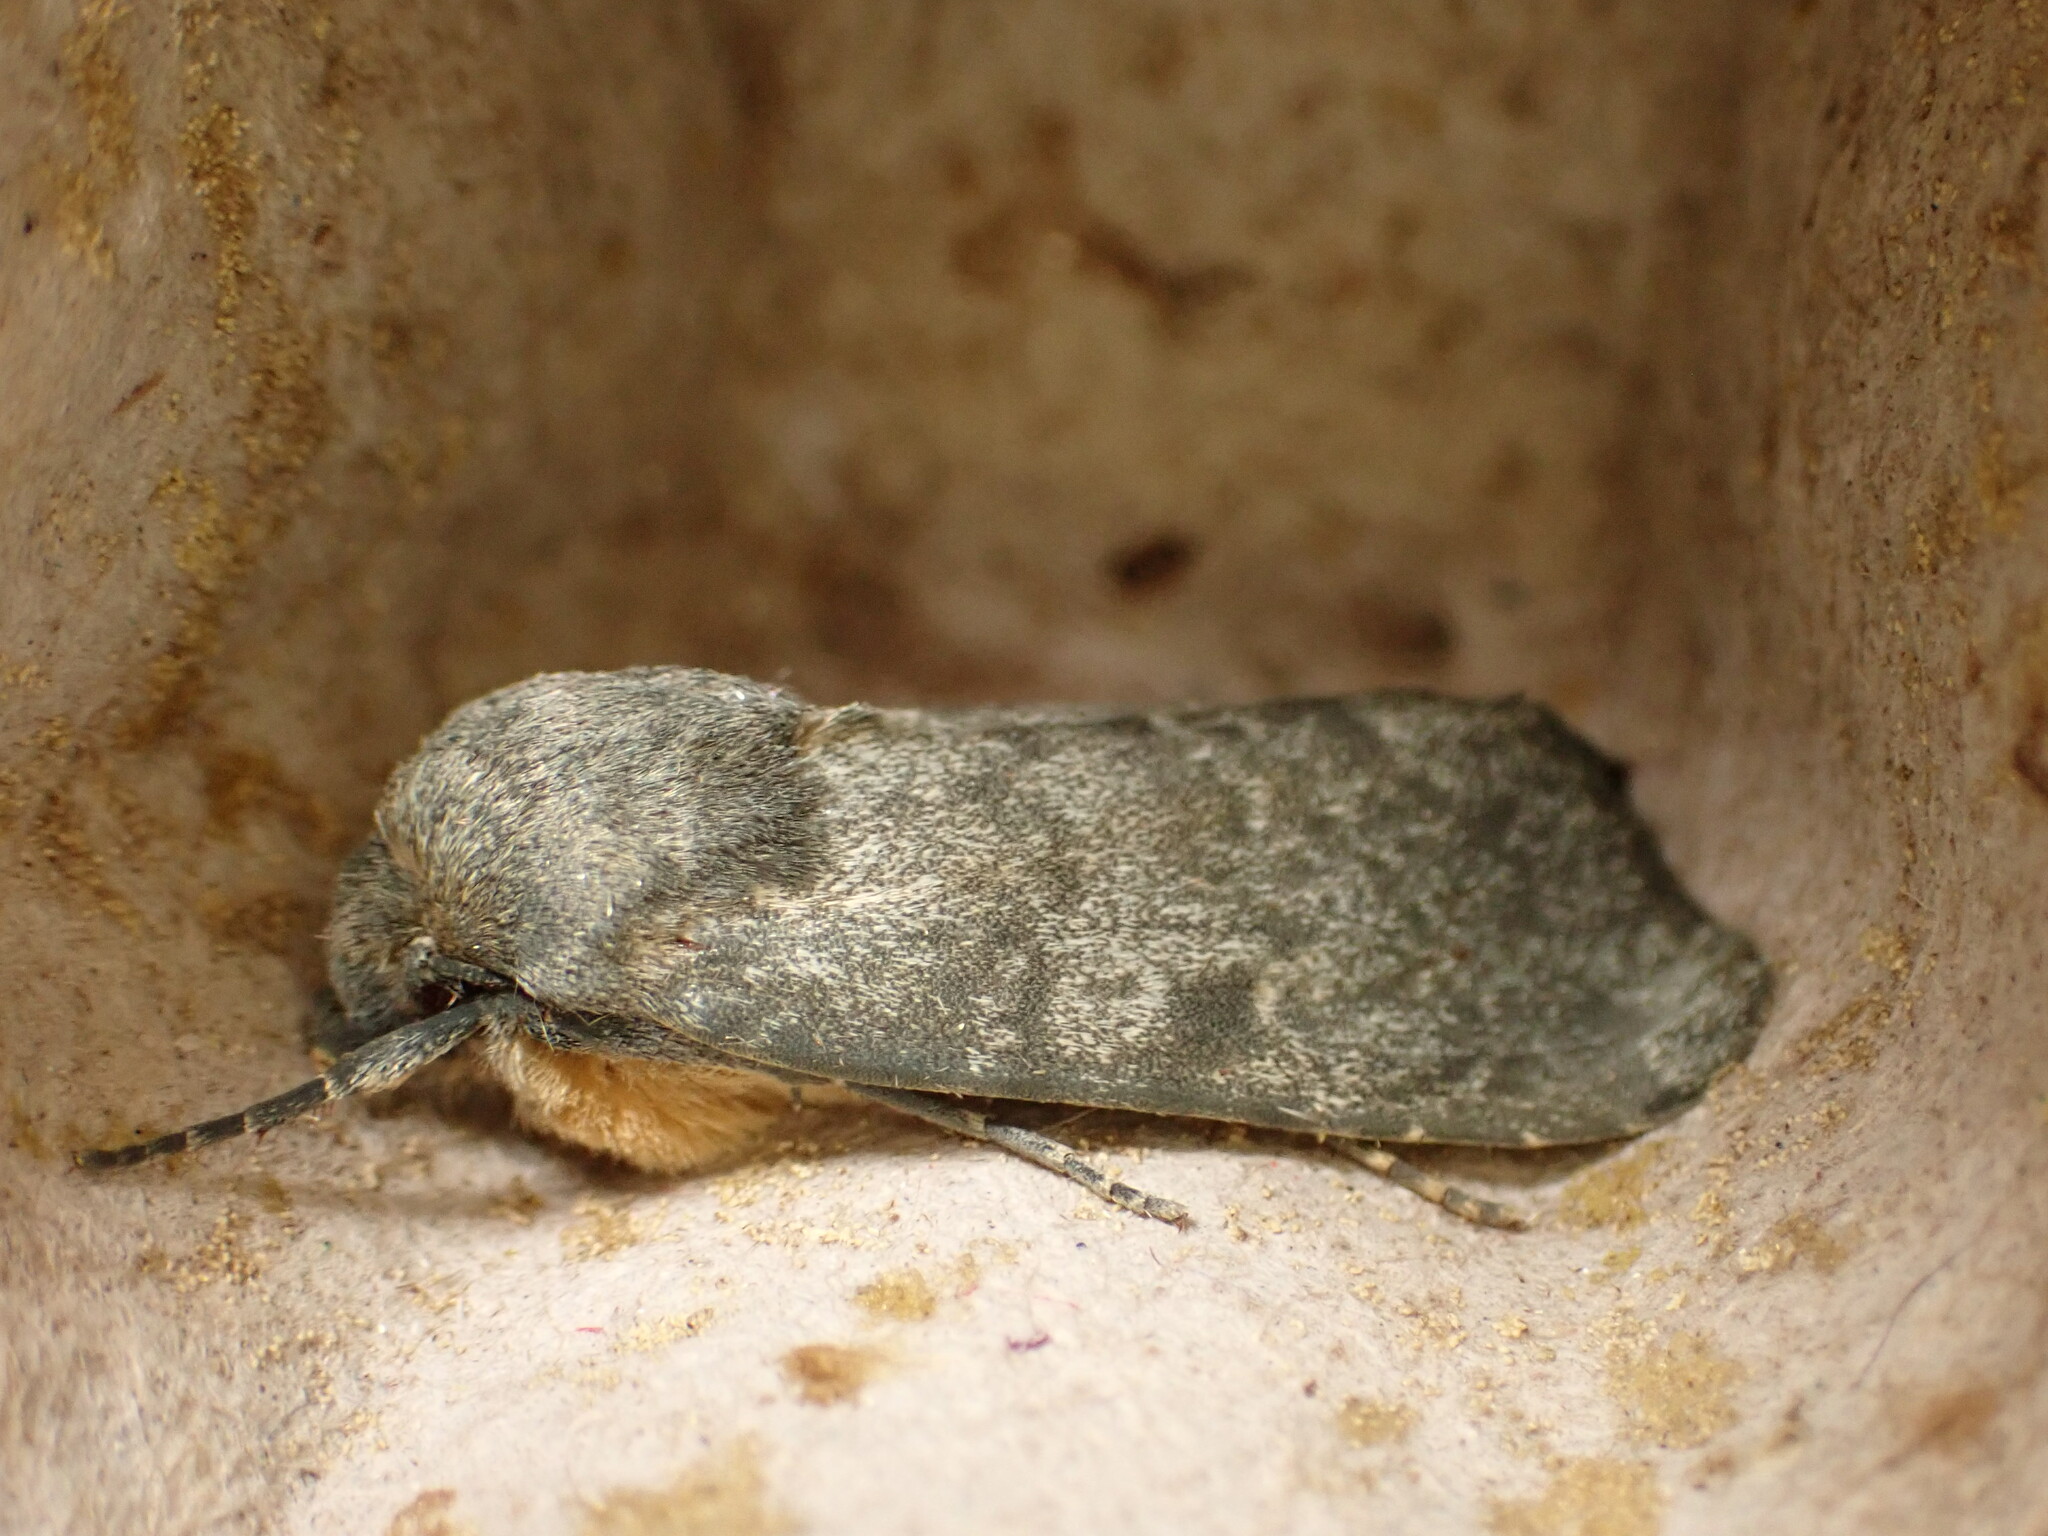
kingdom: Animalia
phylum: Arthropoda
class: Insecta
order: Lepidoptera
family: Noctuidae
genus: Physetica
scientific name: Physetica caerulea
